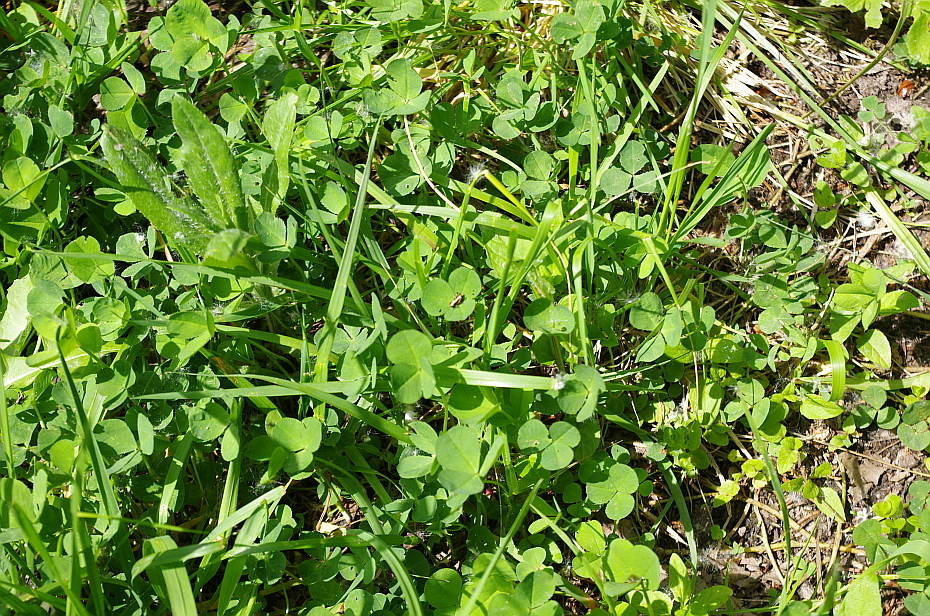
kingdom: Plantae
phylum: Tracheophyta
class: Magnoliopsida
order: Fabales
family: Fabaceae
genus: Trifolium
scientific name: Trifolium repens
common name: White clover
